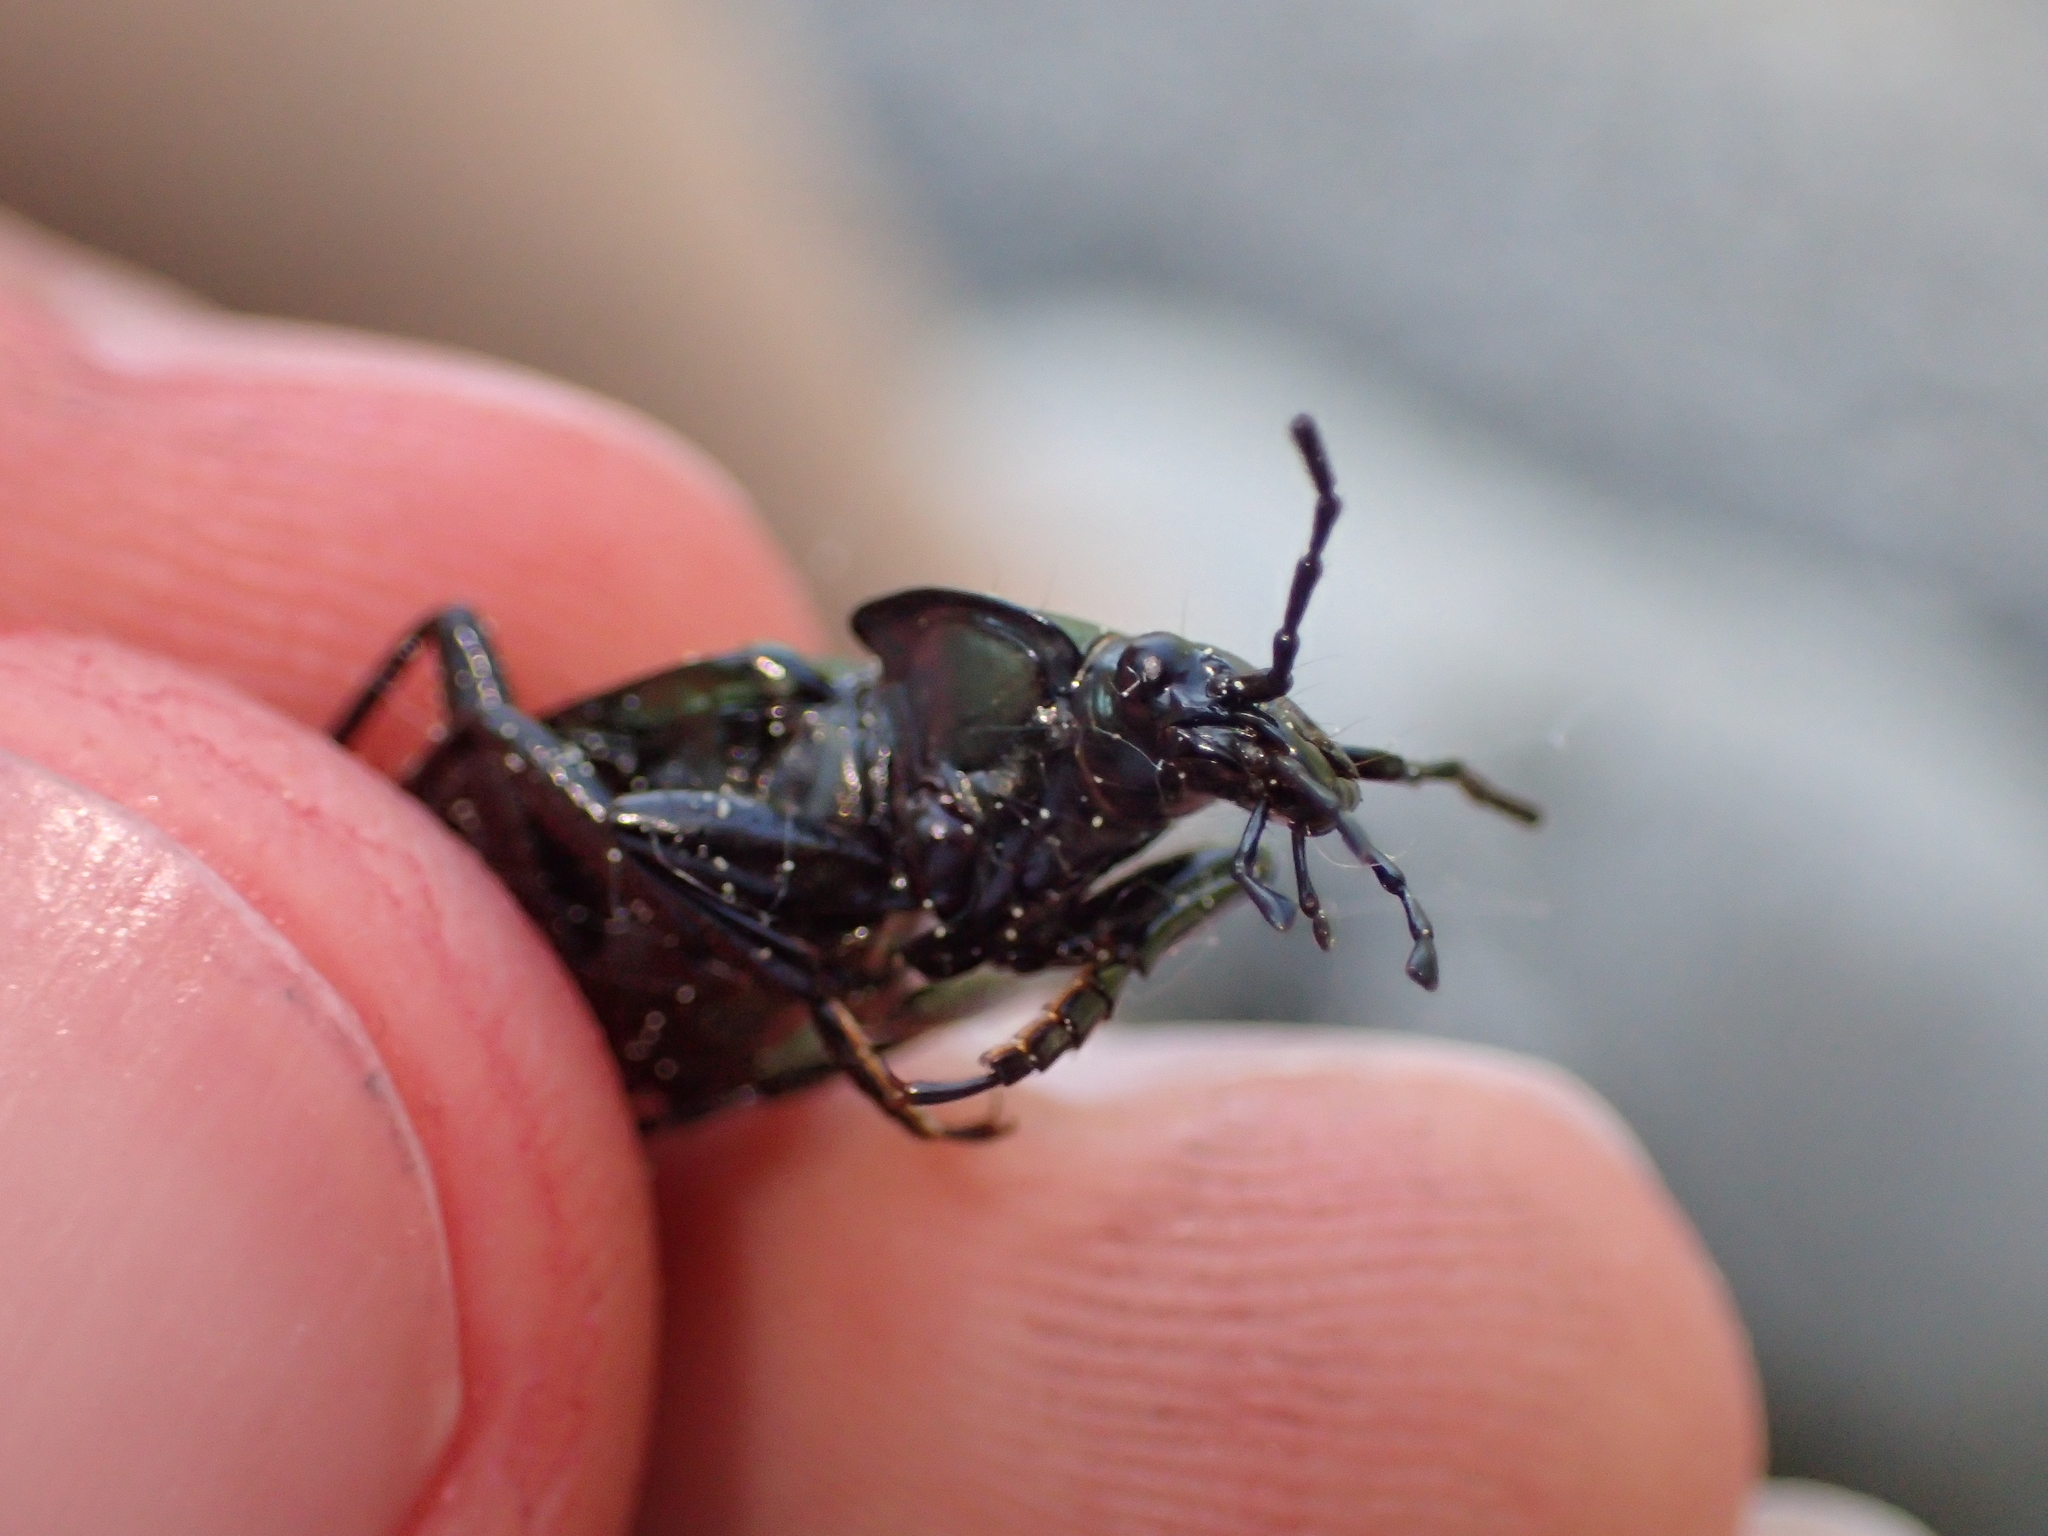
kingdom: Animalia
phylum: Arthropoda
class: Insecta
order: Coleoptera
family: Carabidae
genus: Carabus
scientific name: Carabus granulatus
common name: Granulate ground beetle
